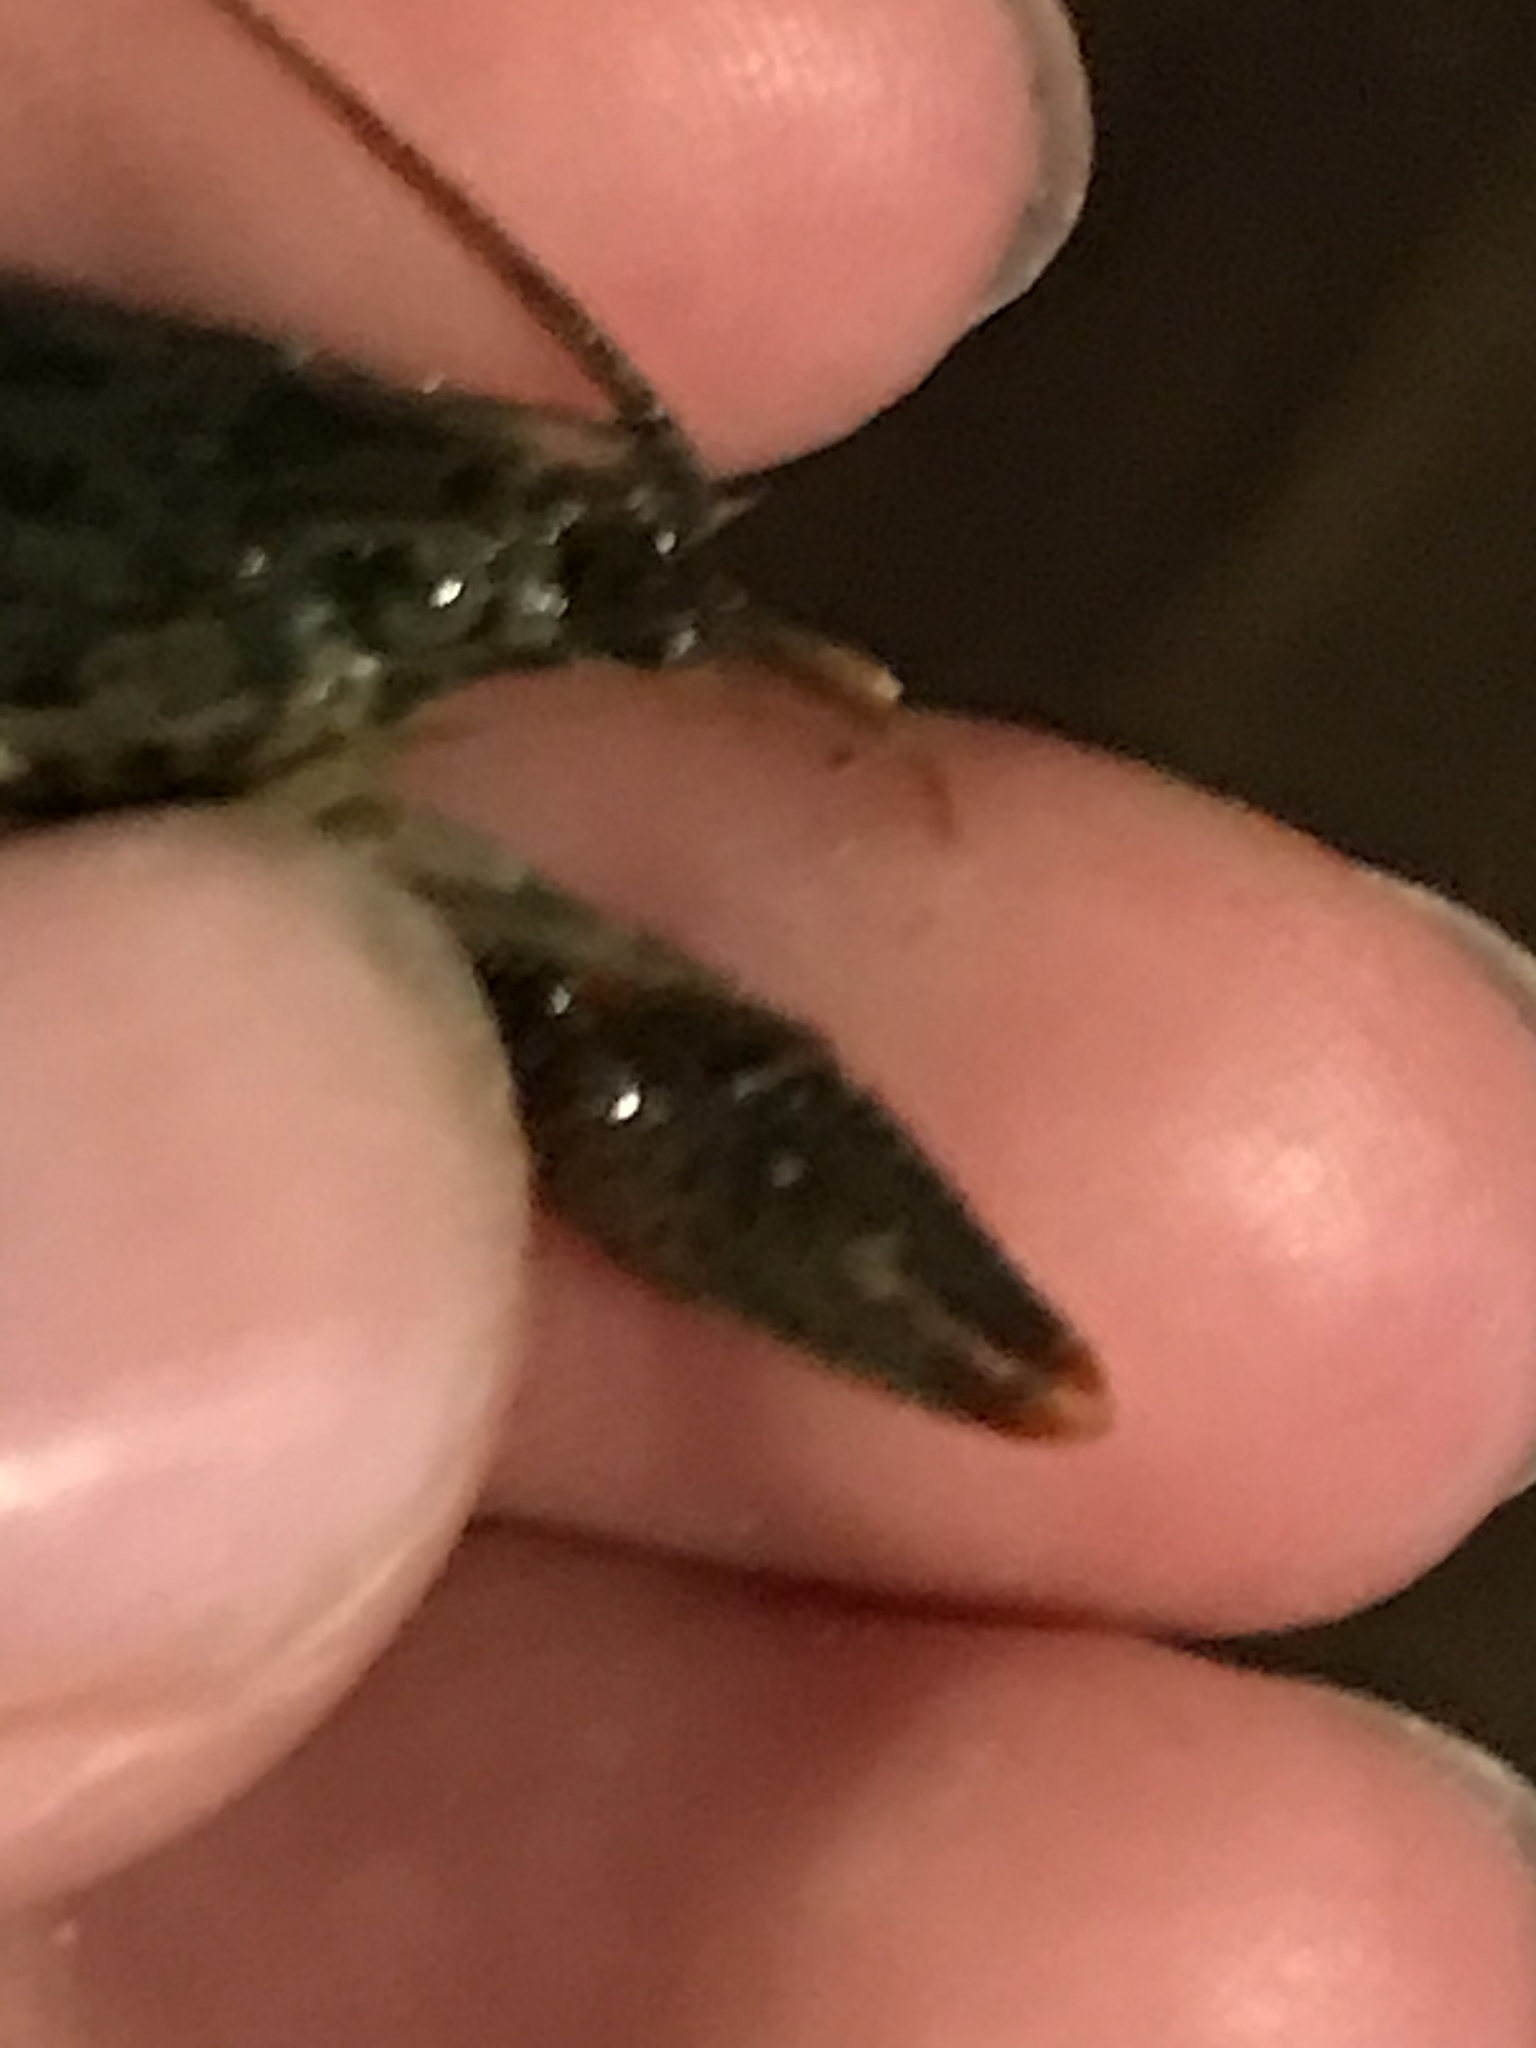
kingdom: Animalia
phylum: Arthropoda
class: Malacostraca
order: Decapoda
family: Cambaridae
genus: Faxonius
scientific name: Faxonius virilis
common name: Virile crayfish
